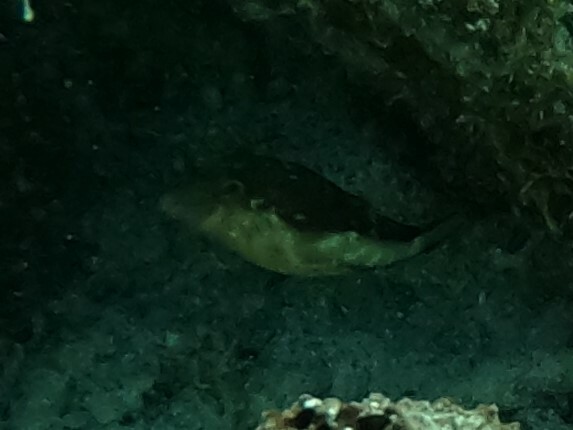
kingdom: Animalia
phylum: Chordata
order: Tetraodontiformes
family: Tetraodontidae
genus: Canthigaster
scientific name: Canthigaster rostrata
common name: Caribbean sharpnose-puffer
